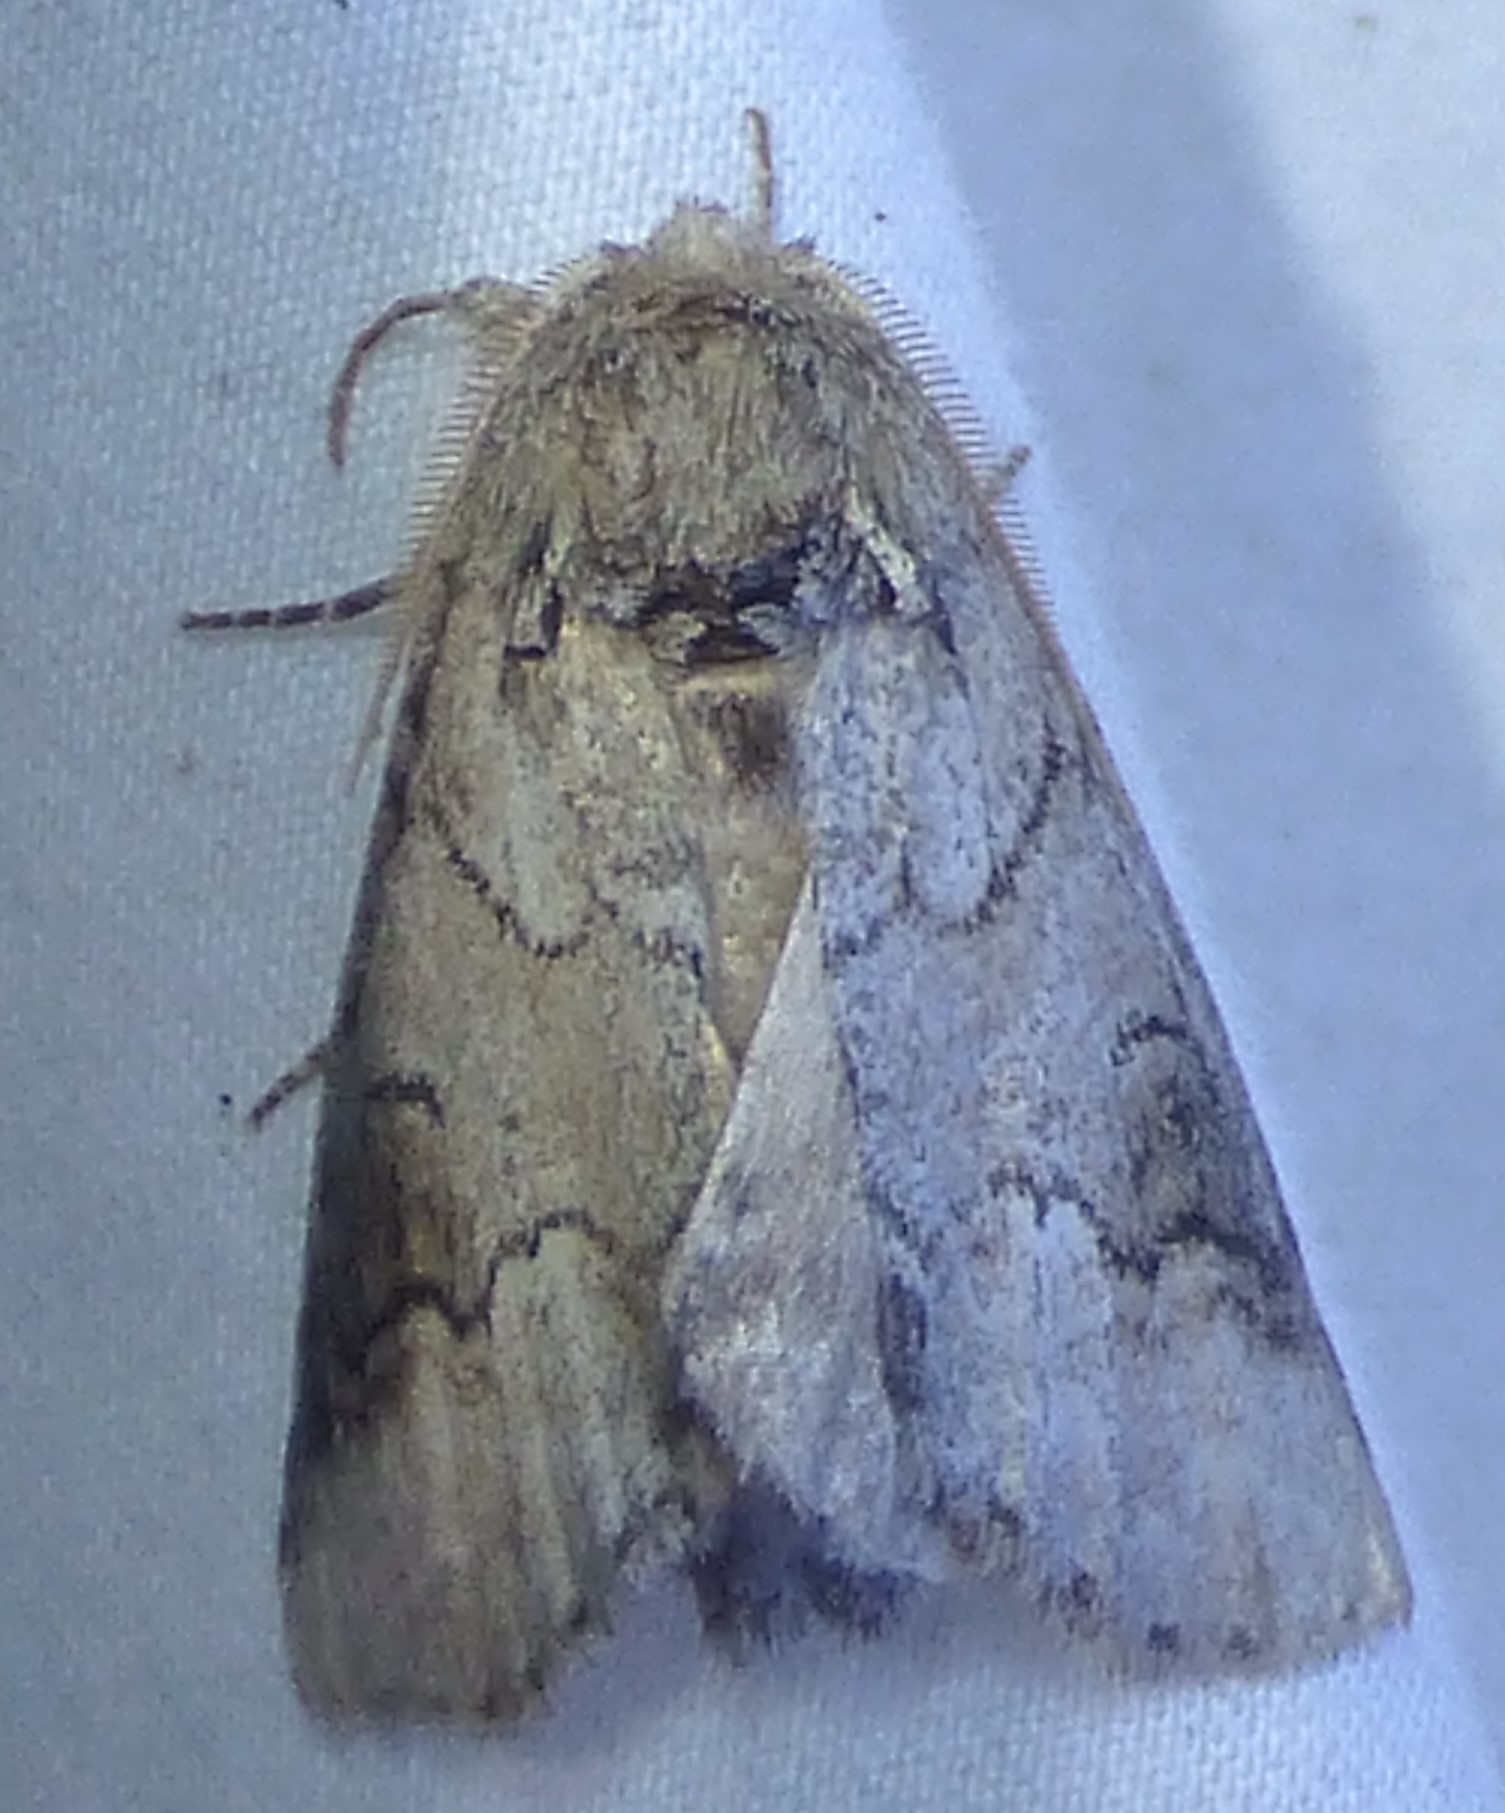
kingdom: Animalia
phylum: Arthropoda
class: Insecta
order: Lepidoptera
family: Notodontidae
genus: Lochmaeus
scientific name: Lochmaeus bilineata
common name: Double-lined prominent
